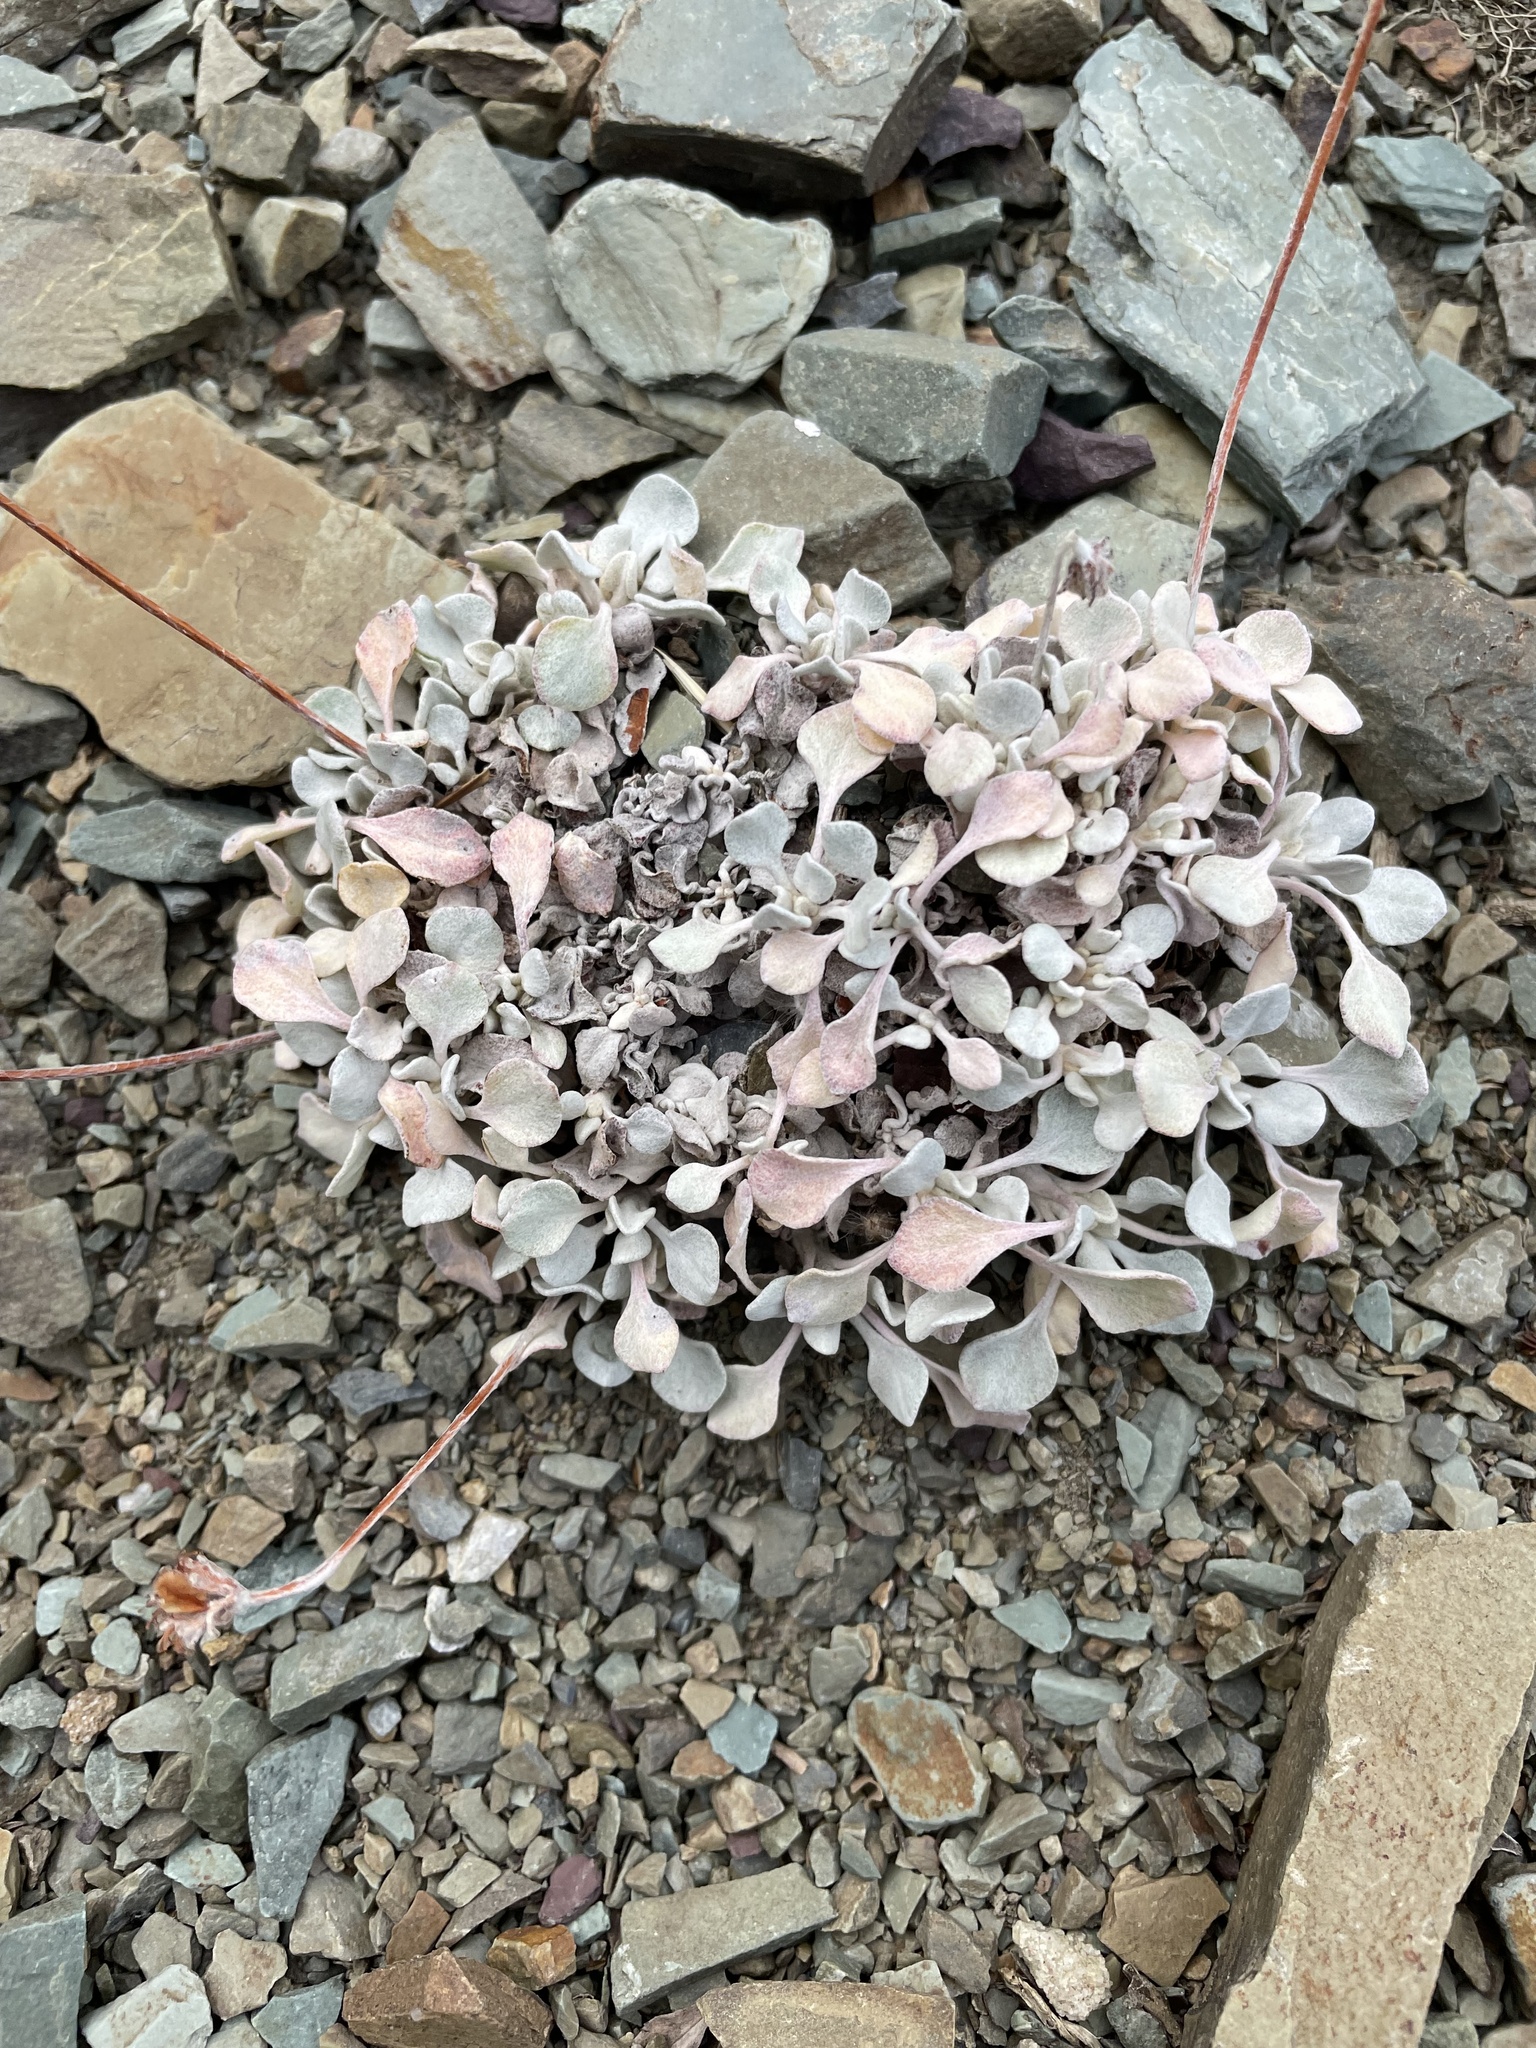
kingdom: Plantae
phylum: Tracheophyta
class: Magnoliopsida
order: Caryophyllales
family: Polygonaceae
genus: Eriogonum
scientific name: Eriogonum ovalifolium
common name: Cushion buckwheat
